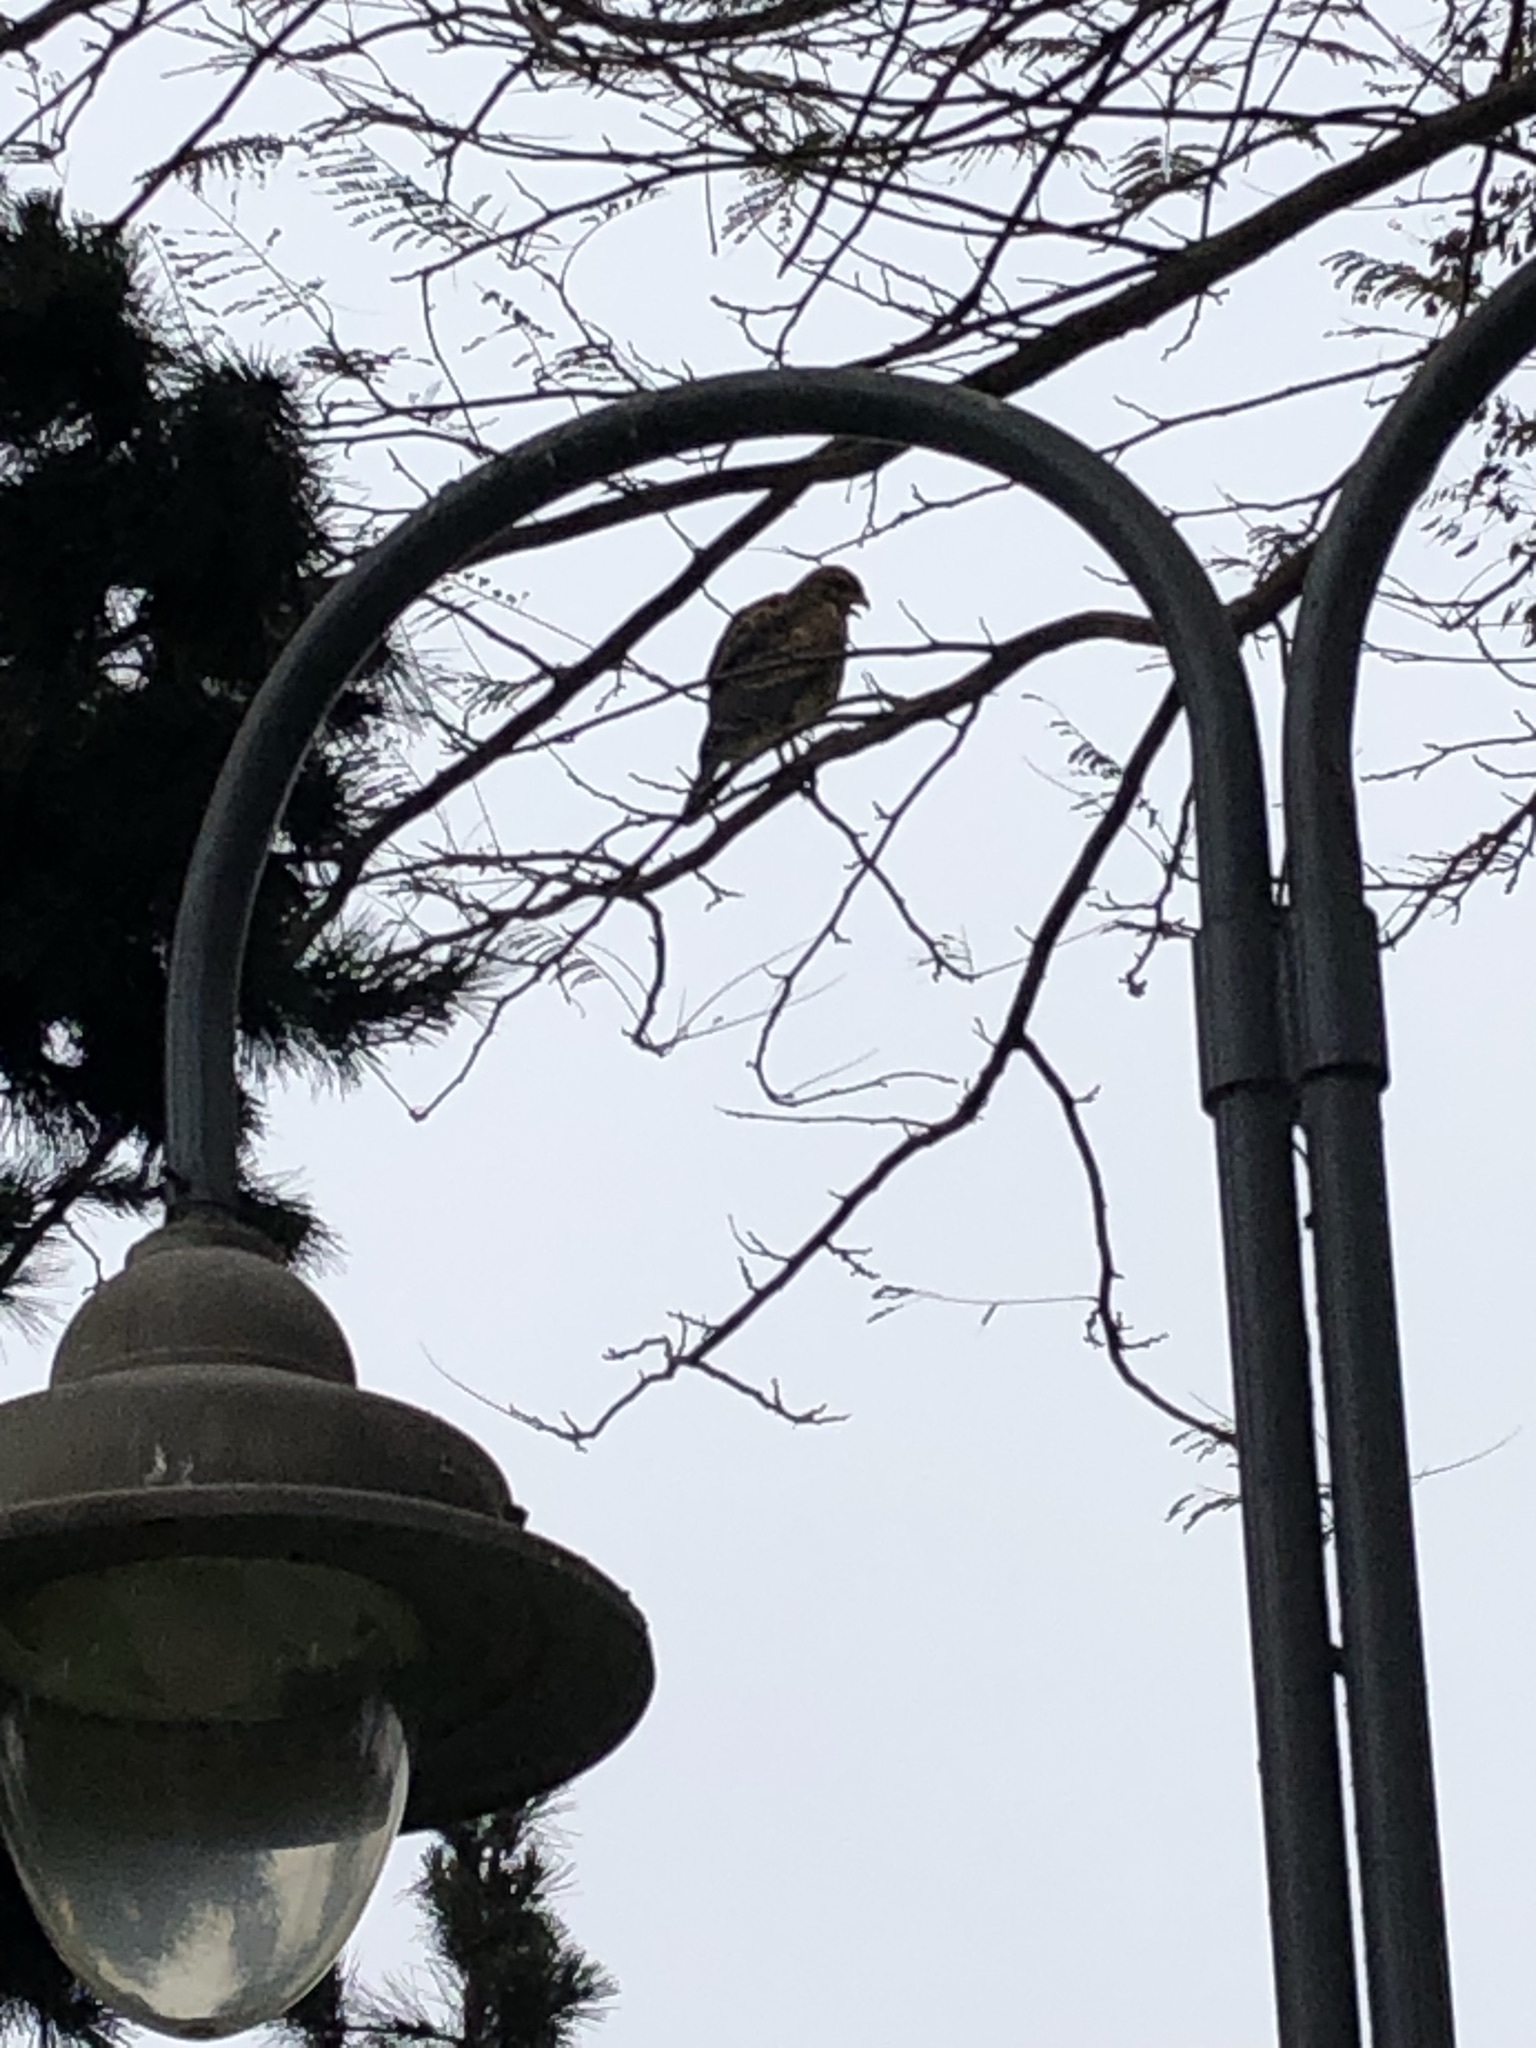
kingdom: Animalia
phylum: Chordata
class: Aves
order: Accipitriformes
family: Accipitridae
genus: Parabuteo
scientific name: Parabuteo unicinctus
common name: Harris's hawk
